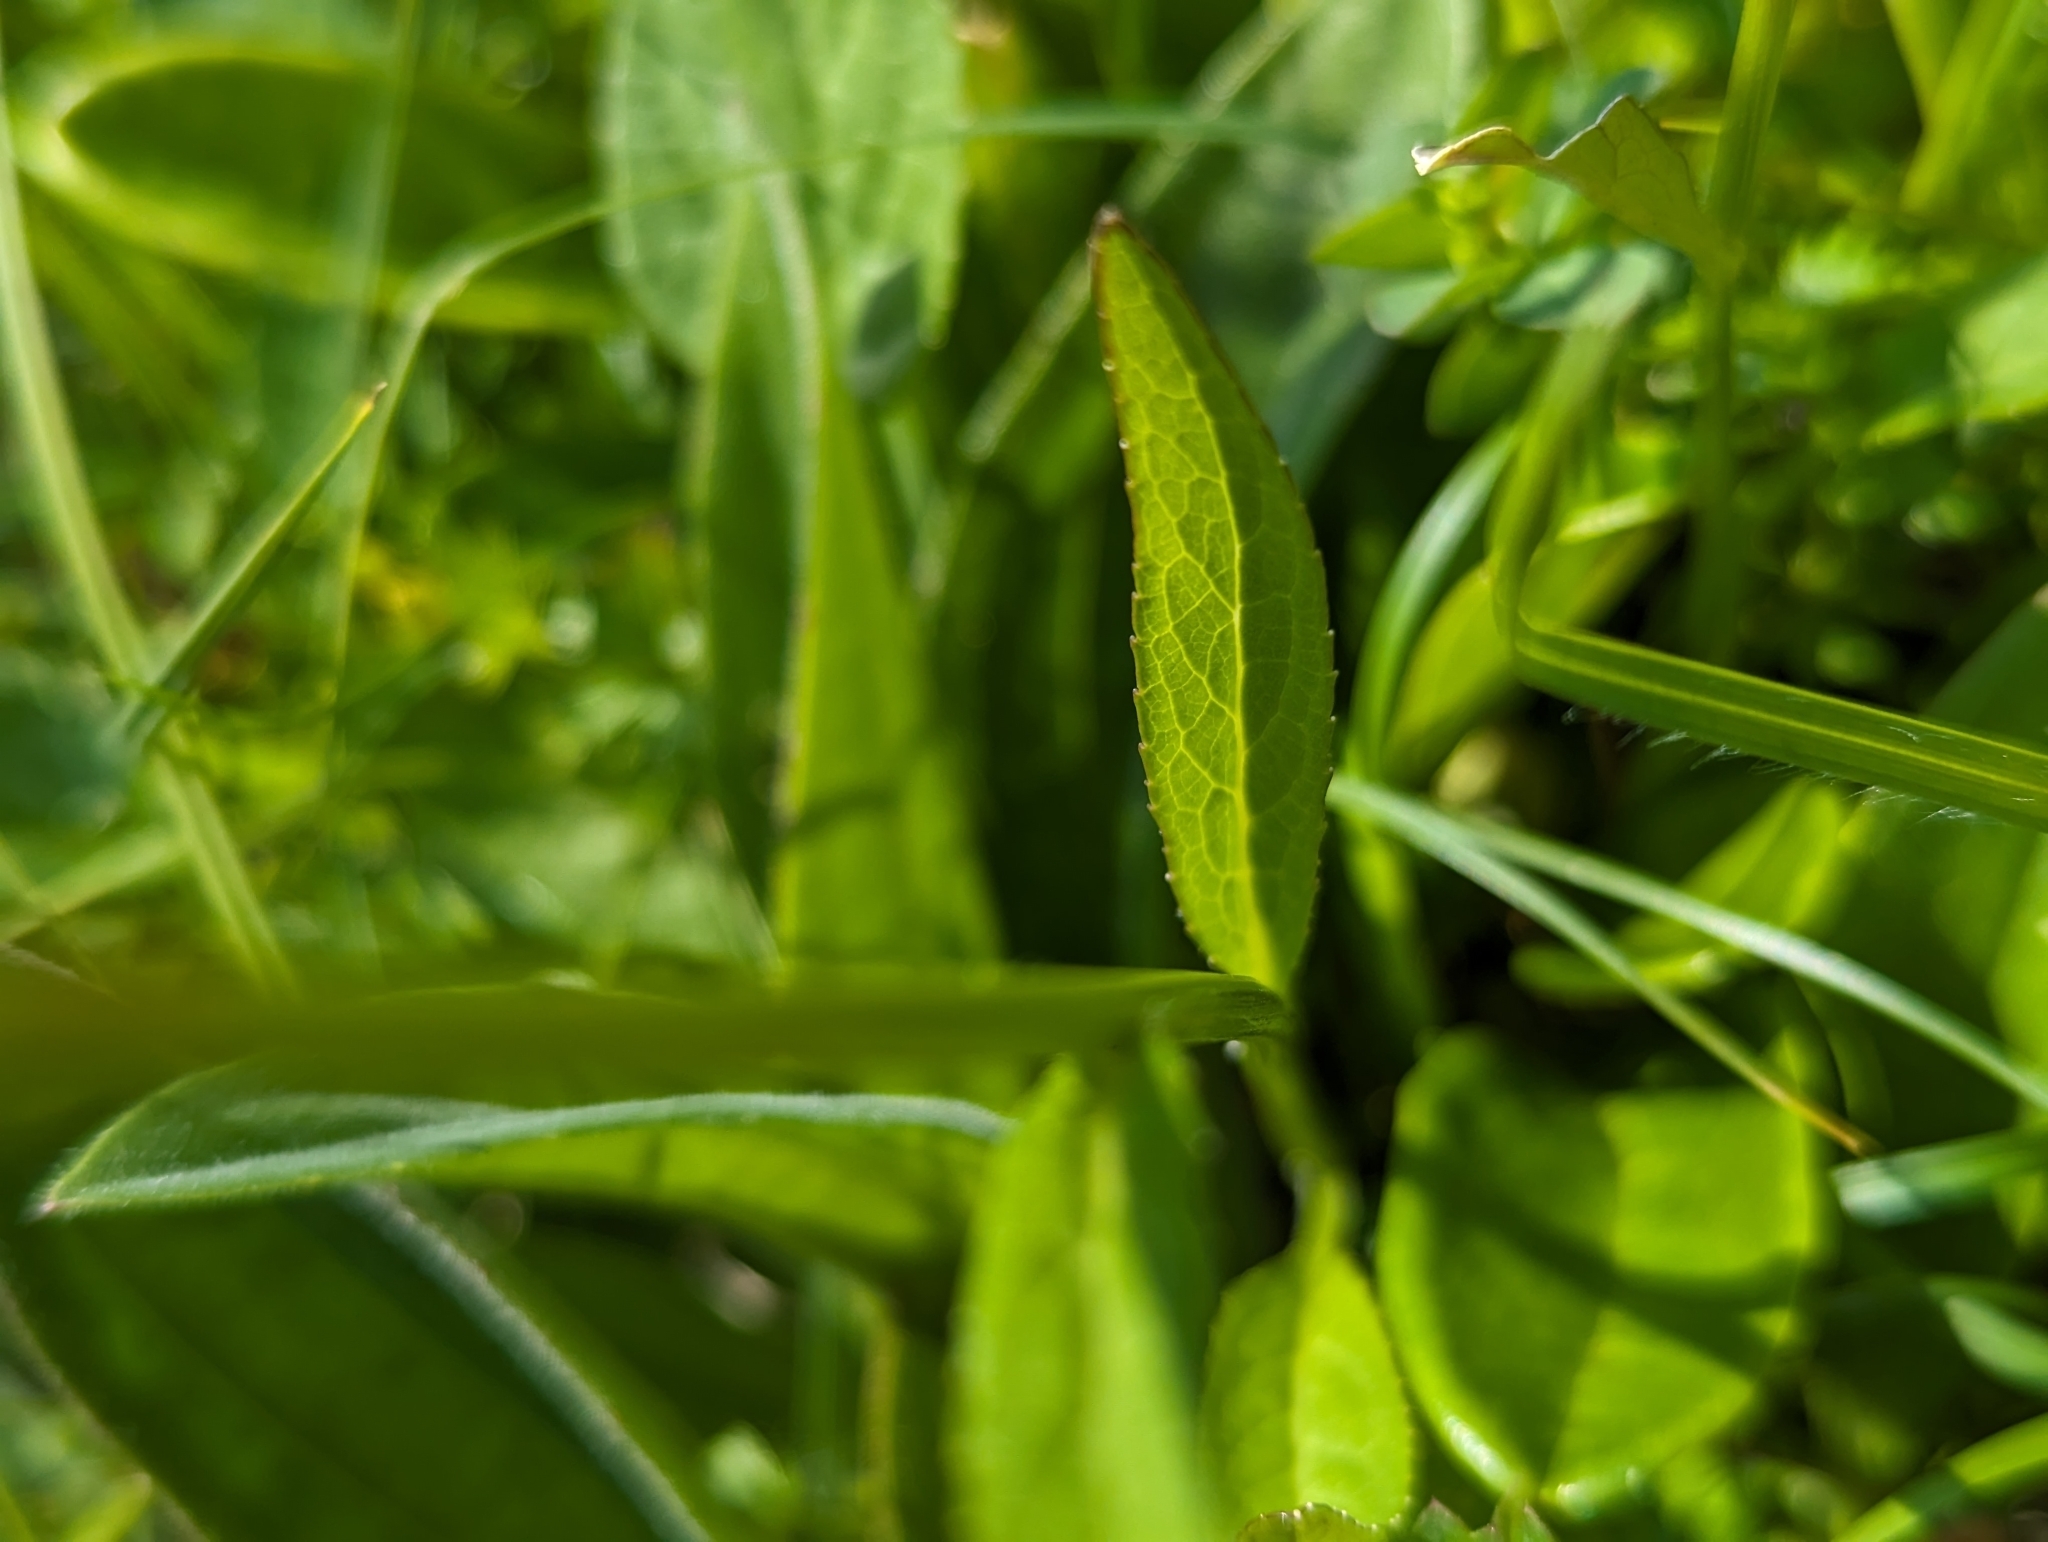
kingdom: Plantae
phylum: Tracheophyta
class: Magnoliopsida
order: Asterales
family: Campanulaceae
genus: Phyteuma
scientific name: Phyteuma orbiculare
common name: Round-headed rampion
